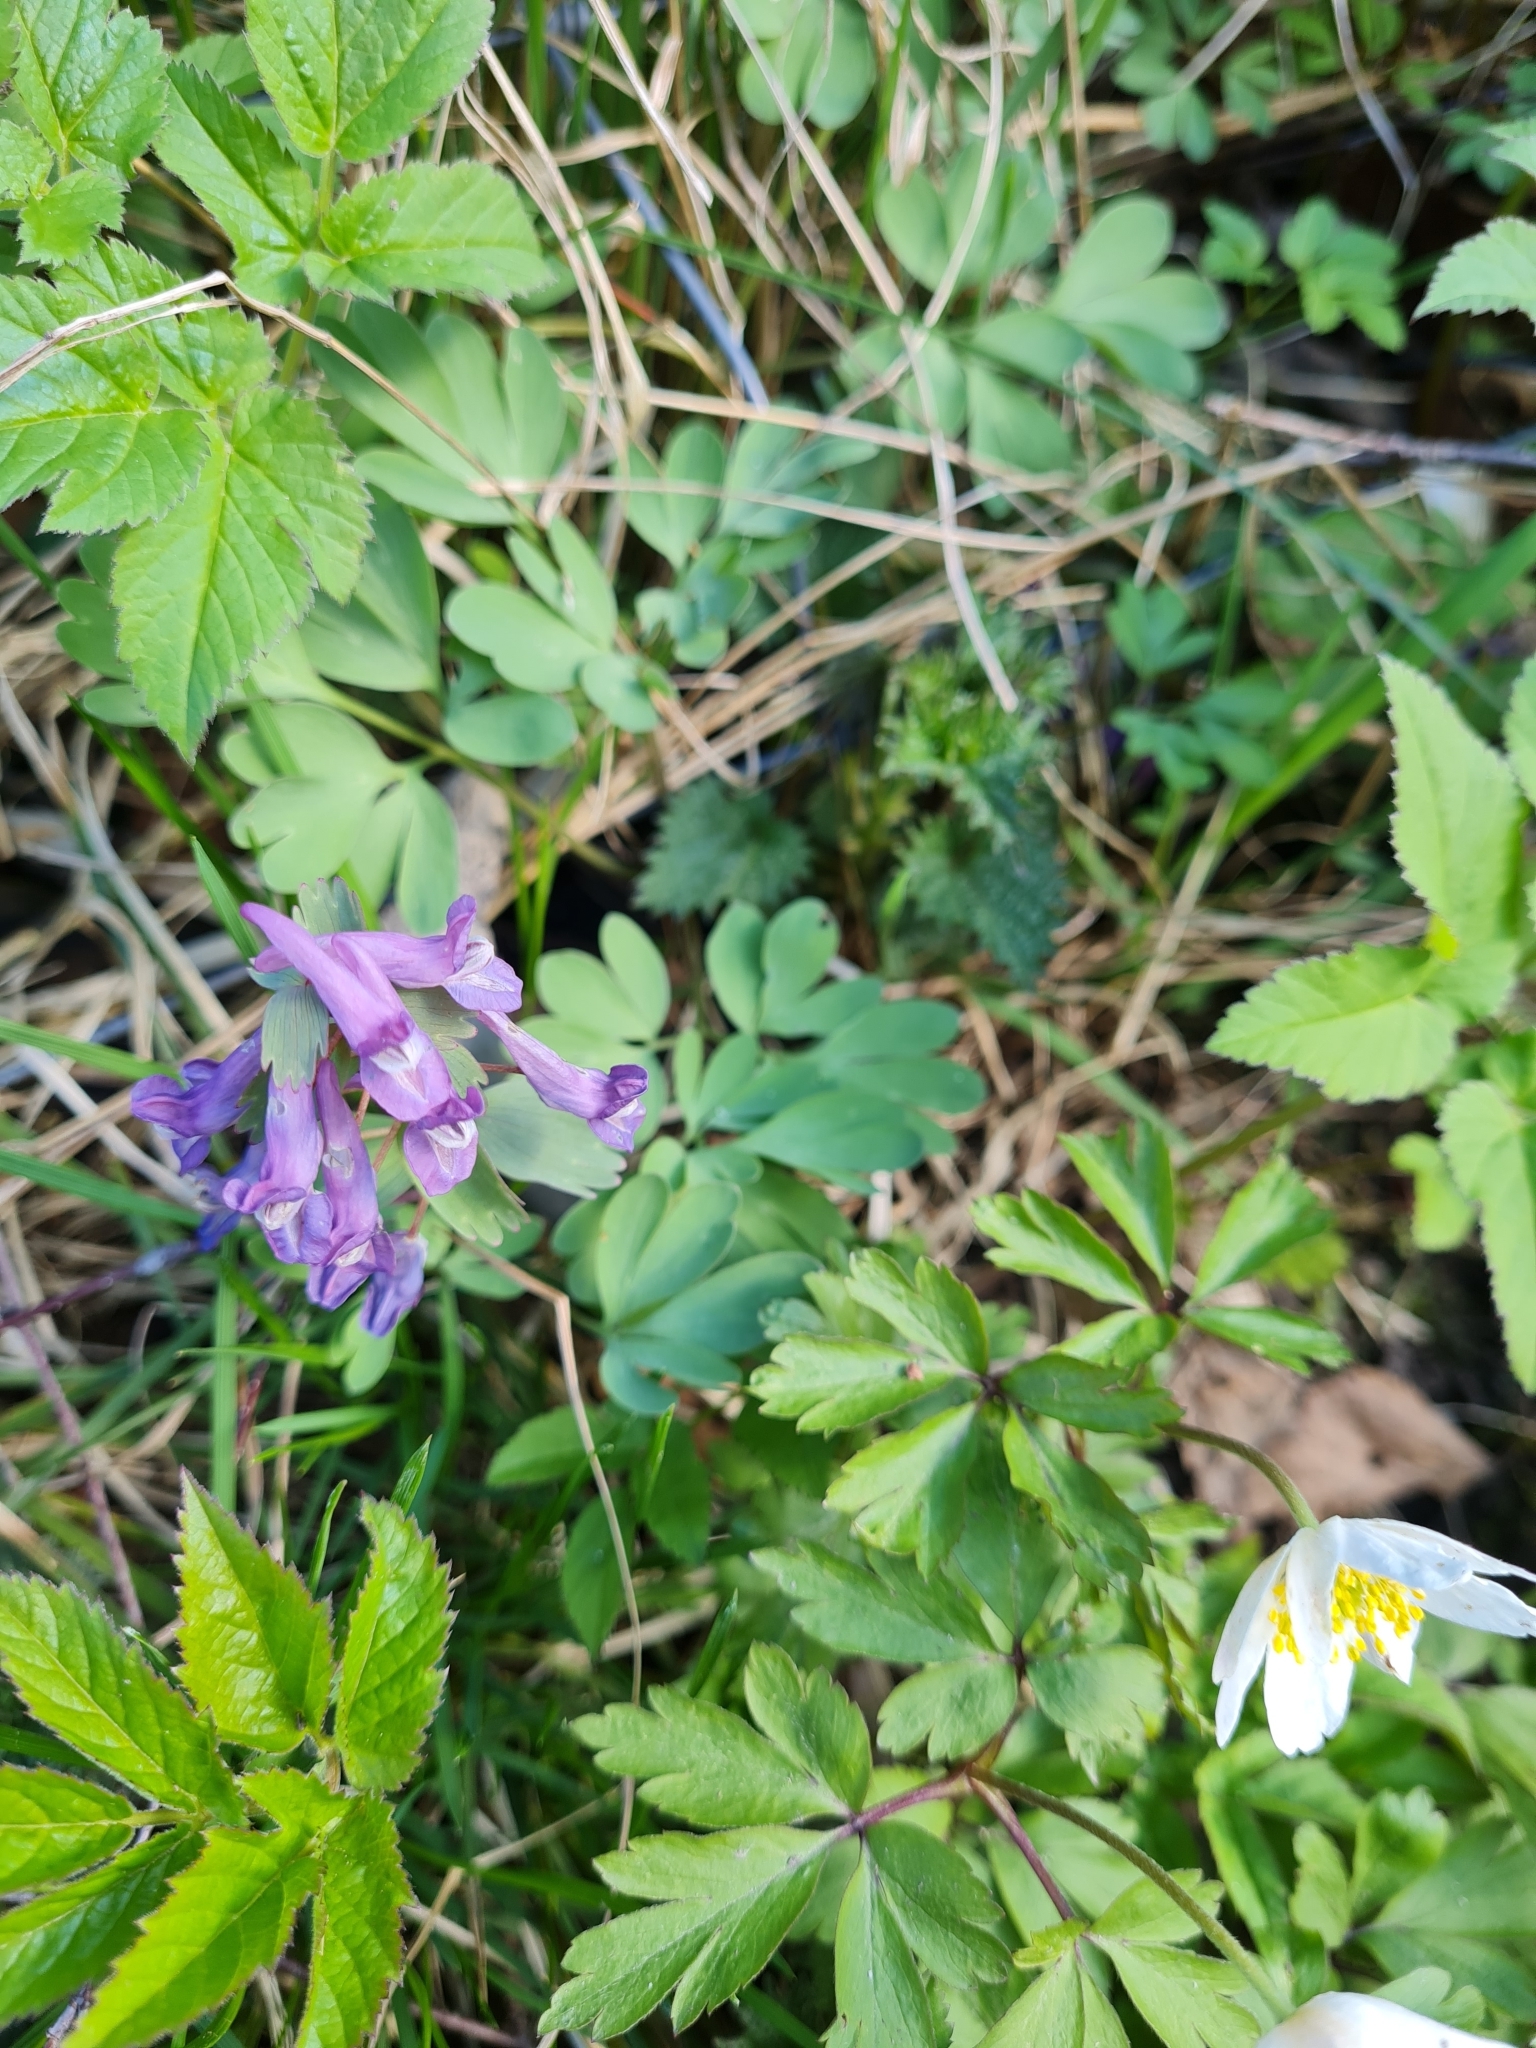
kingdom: Plantae
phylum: Tracheophyta
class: Magnoliopsida
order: Ranunculales
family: Papaveraceae
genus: Corydalis
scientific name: Corydalis solida
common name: Bird-in-a-bush
